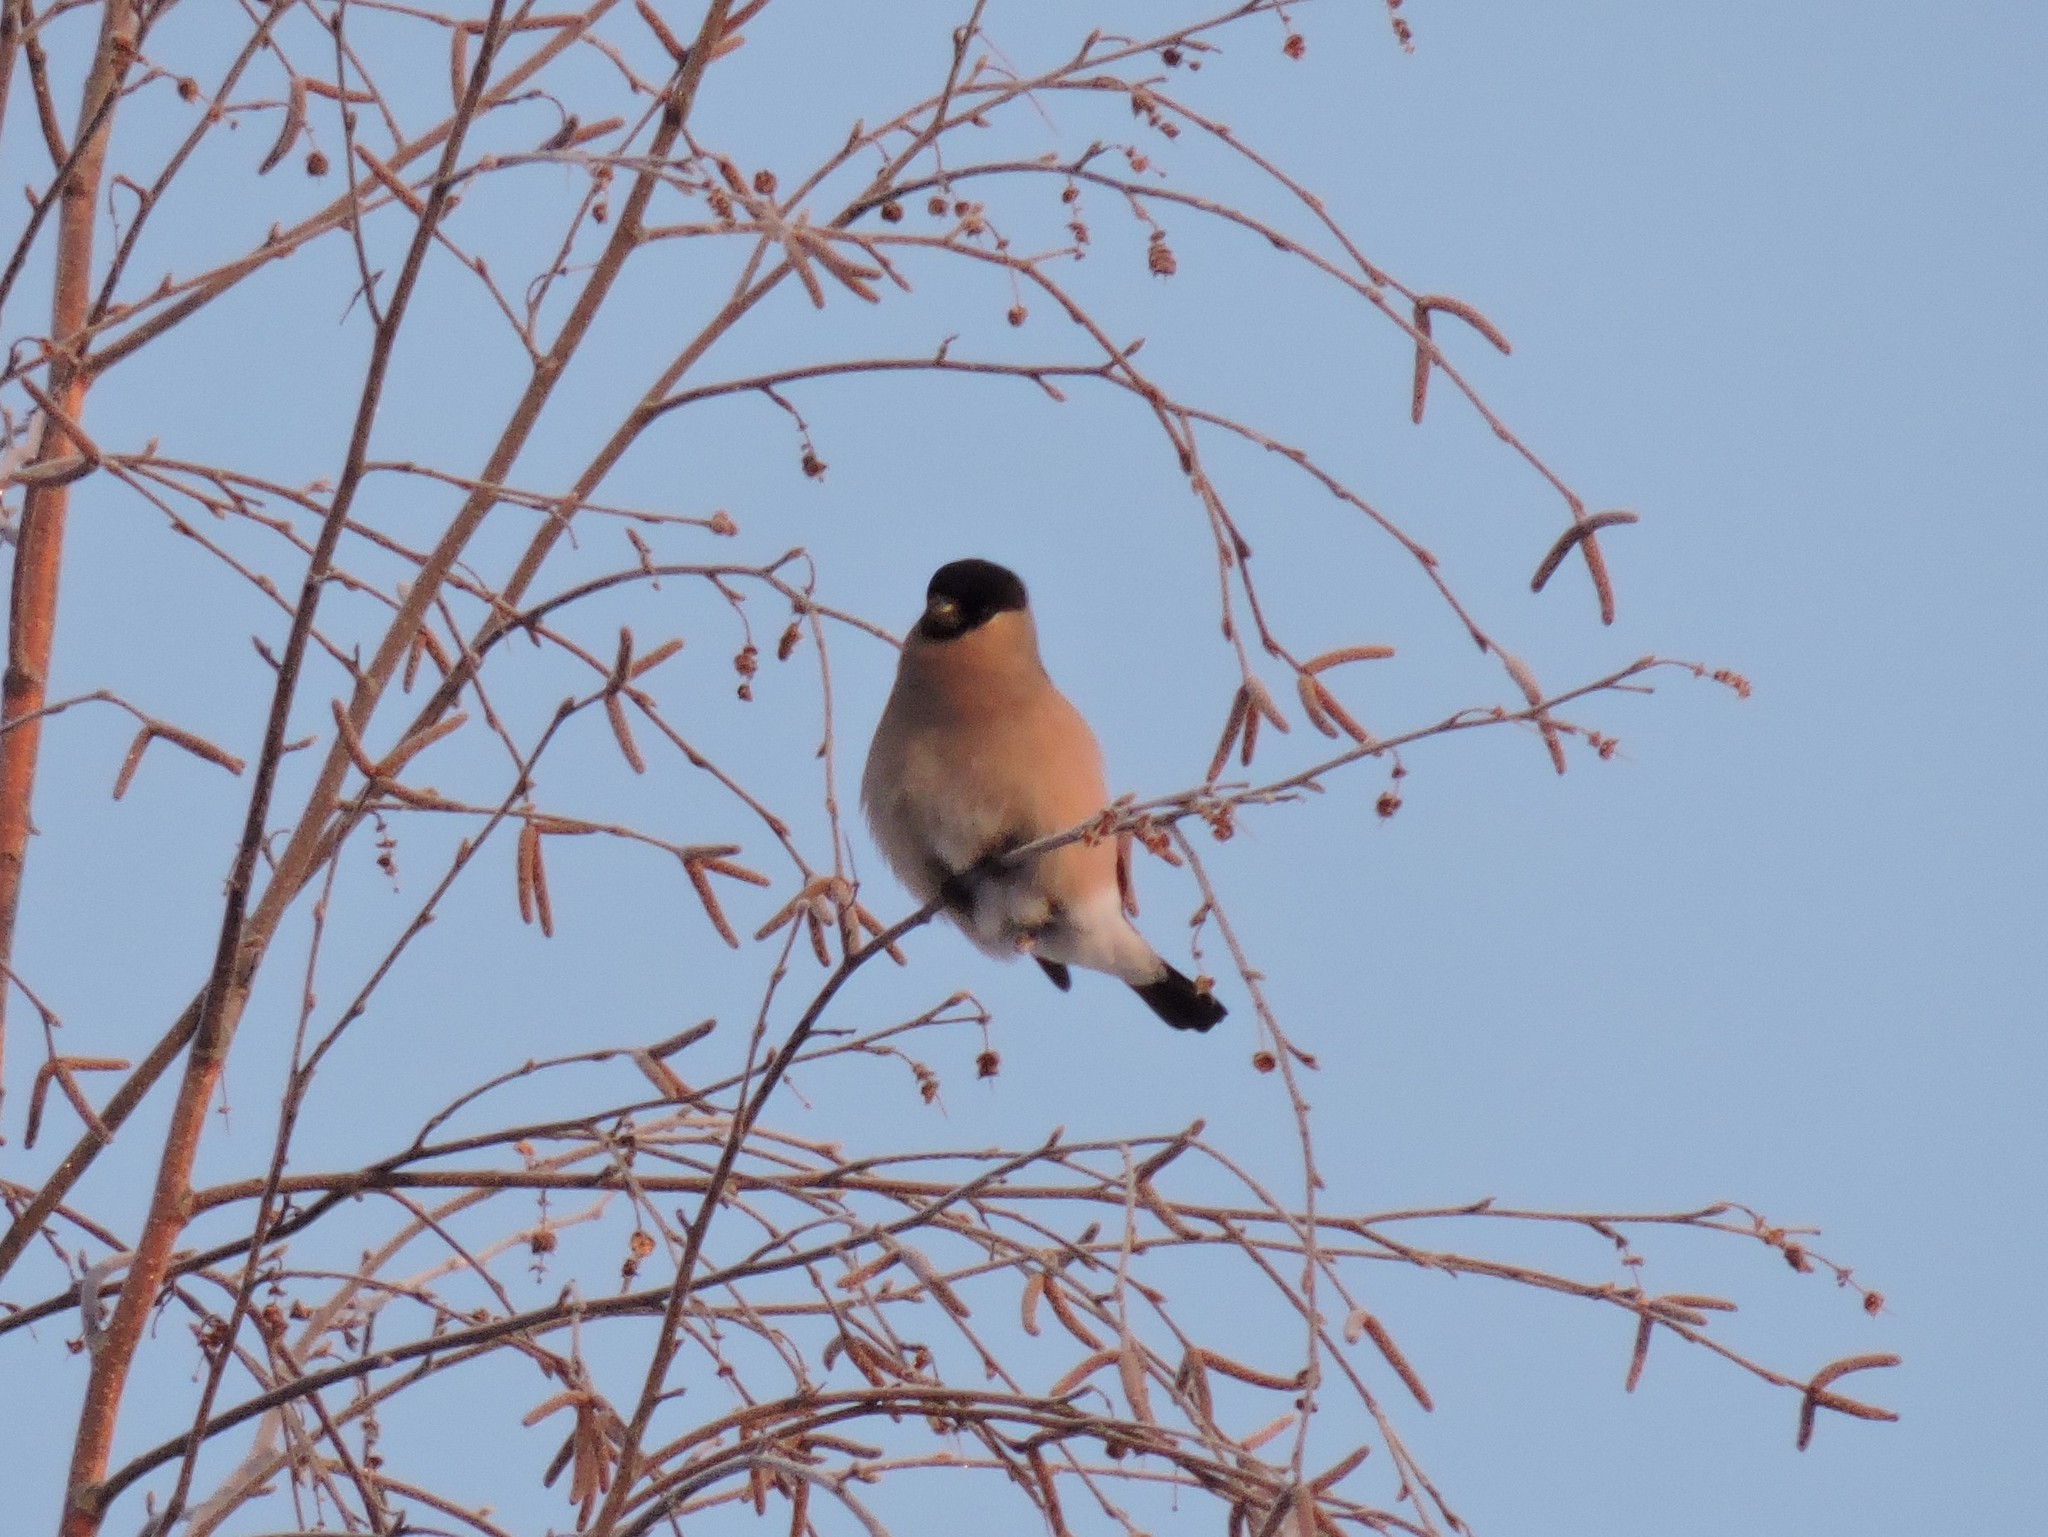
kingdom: Animalia
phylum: Chordata
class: Aves
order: Passeriformes
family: Fringillidae
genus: Pyrrhula
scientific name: Pyrrhula pyrrhula
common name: Eurasian bullfinch
